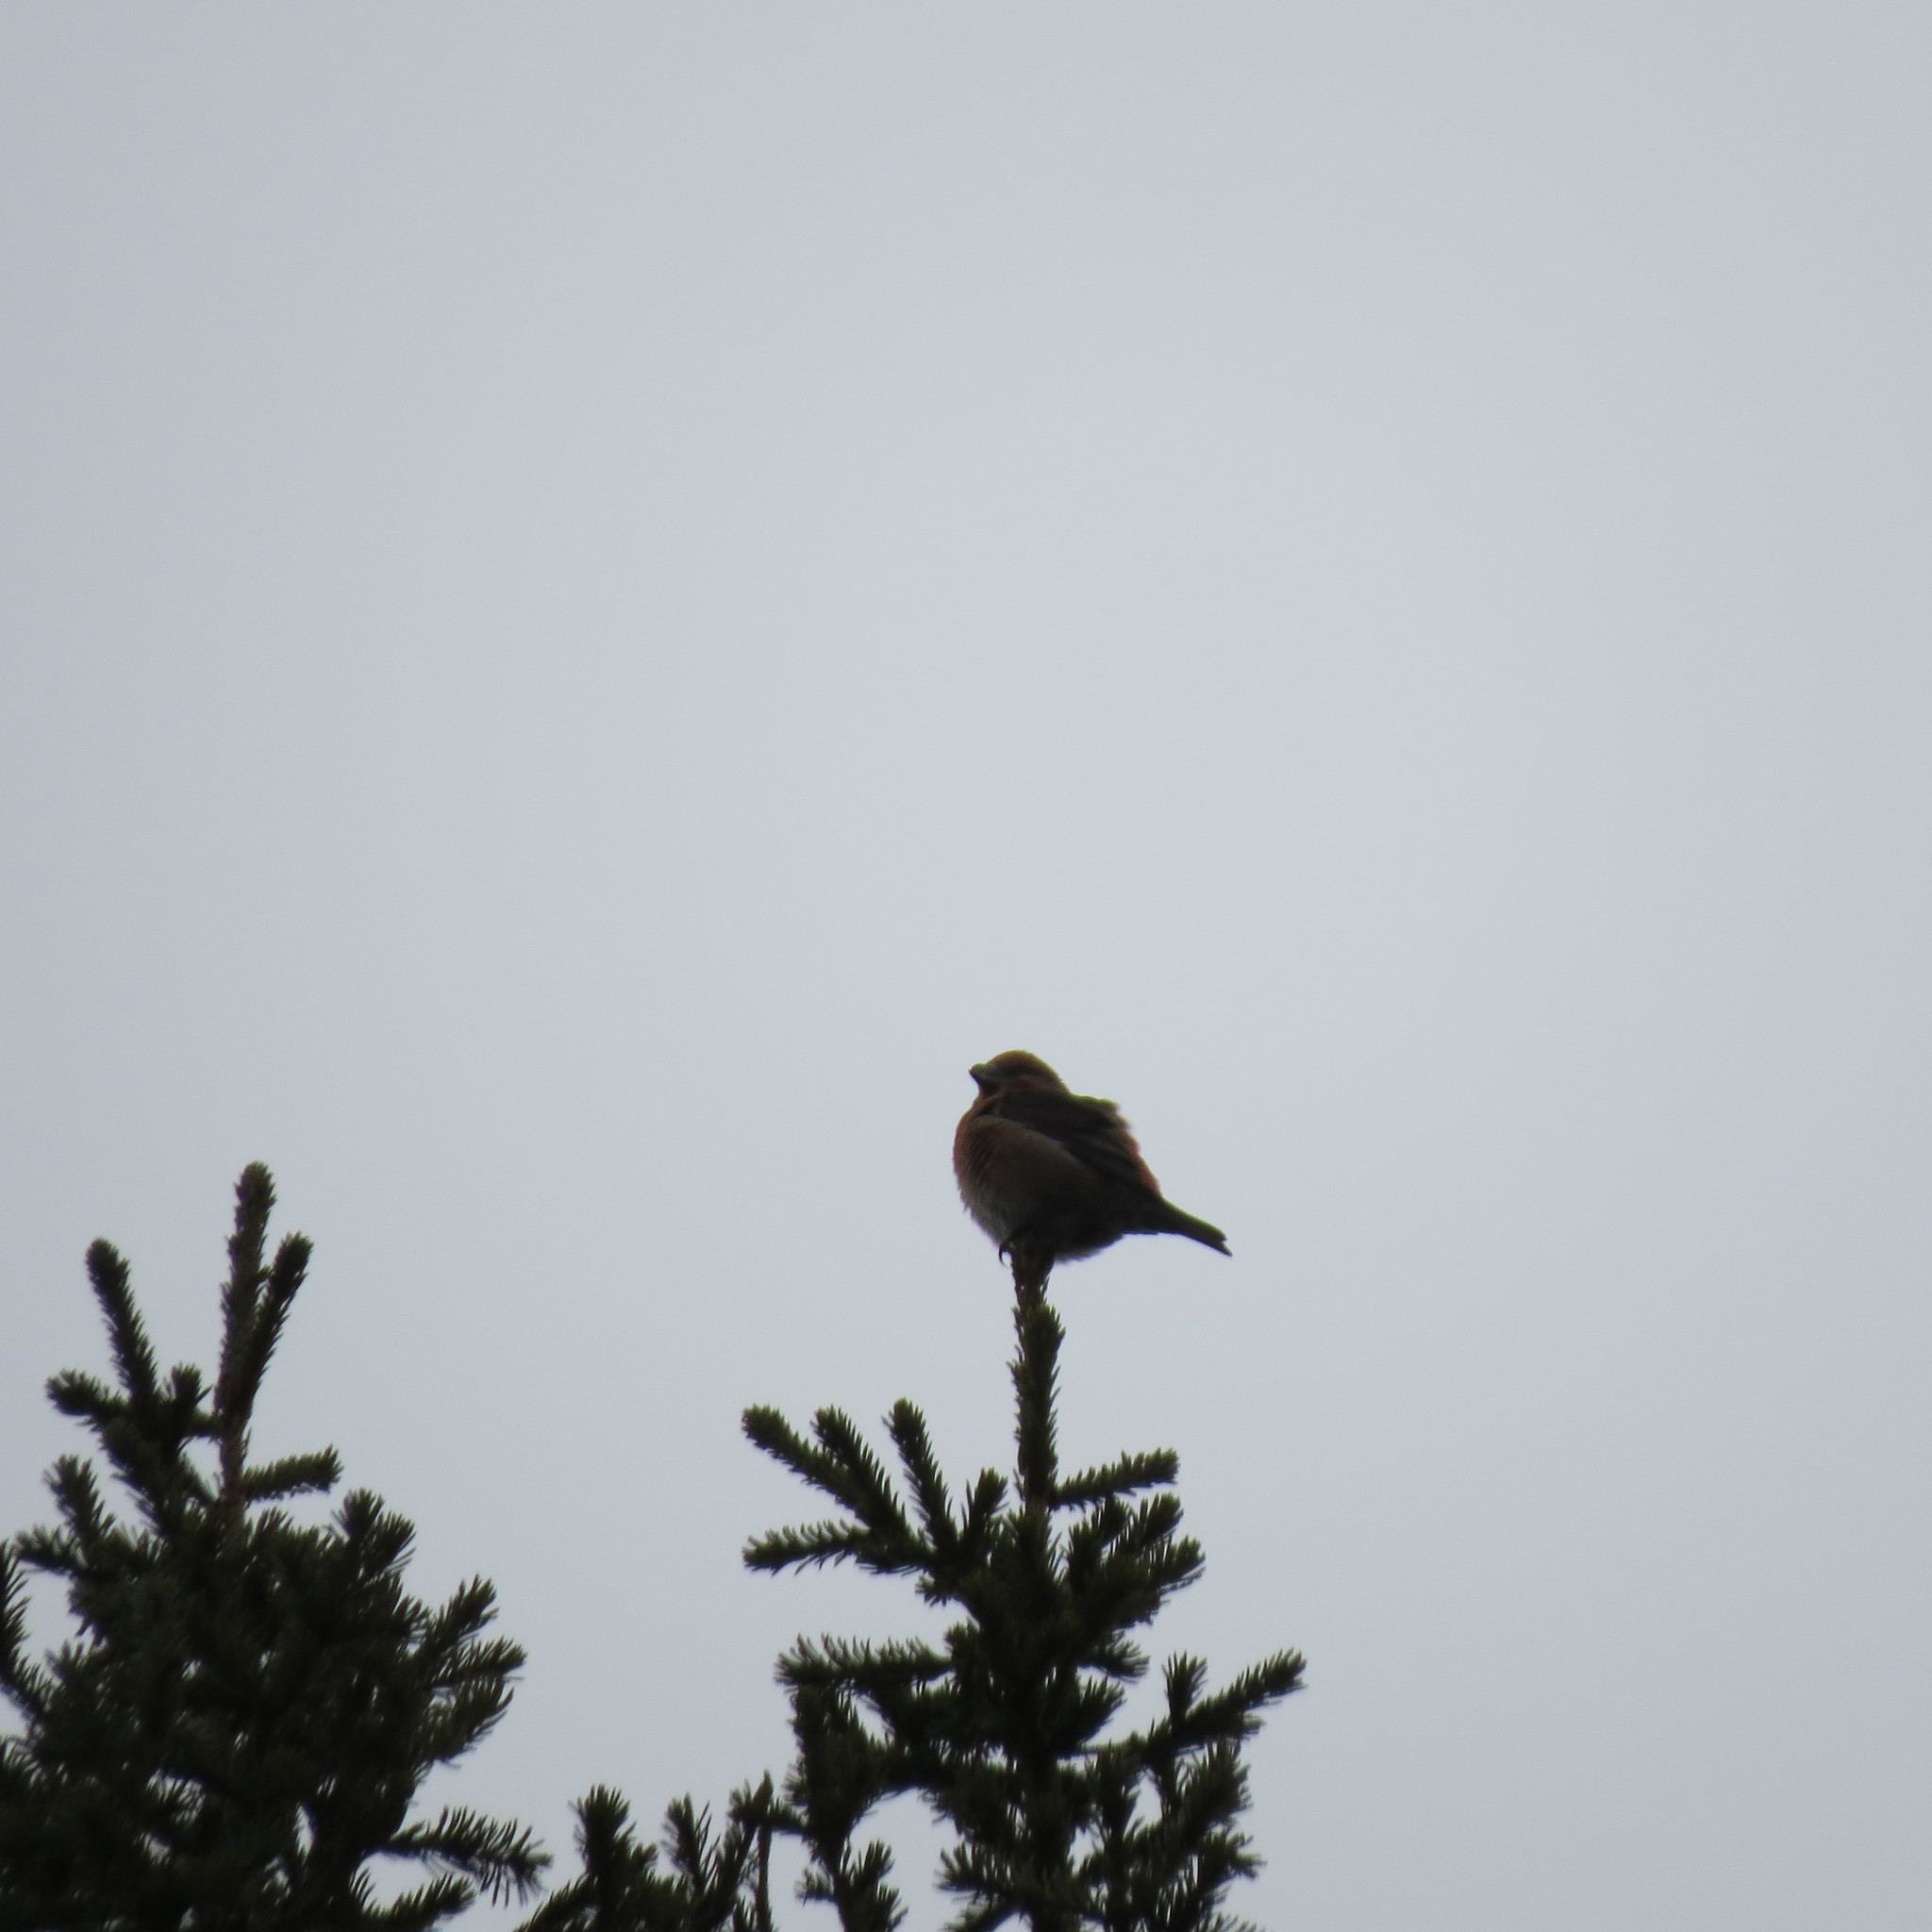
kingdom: Animalia
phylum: Chordata
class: Aves
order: Passeriformes
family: Fringillidae
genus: Loxia
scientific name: Loxia curvirostra
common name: Red crossbill
